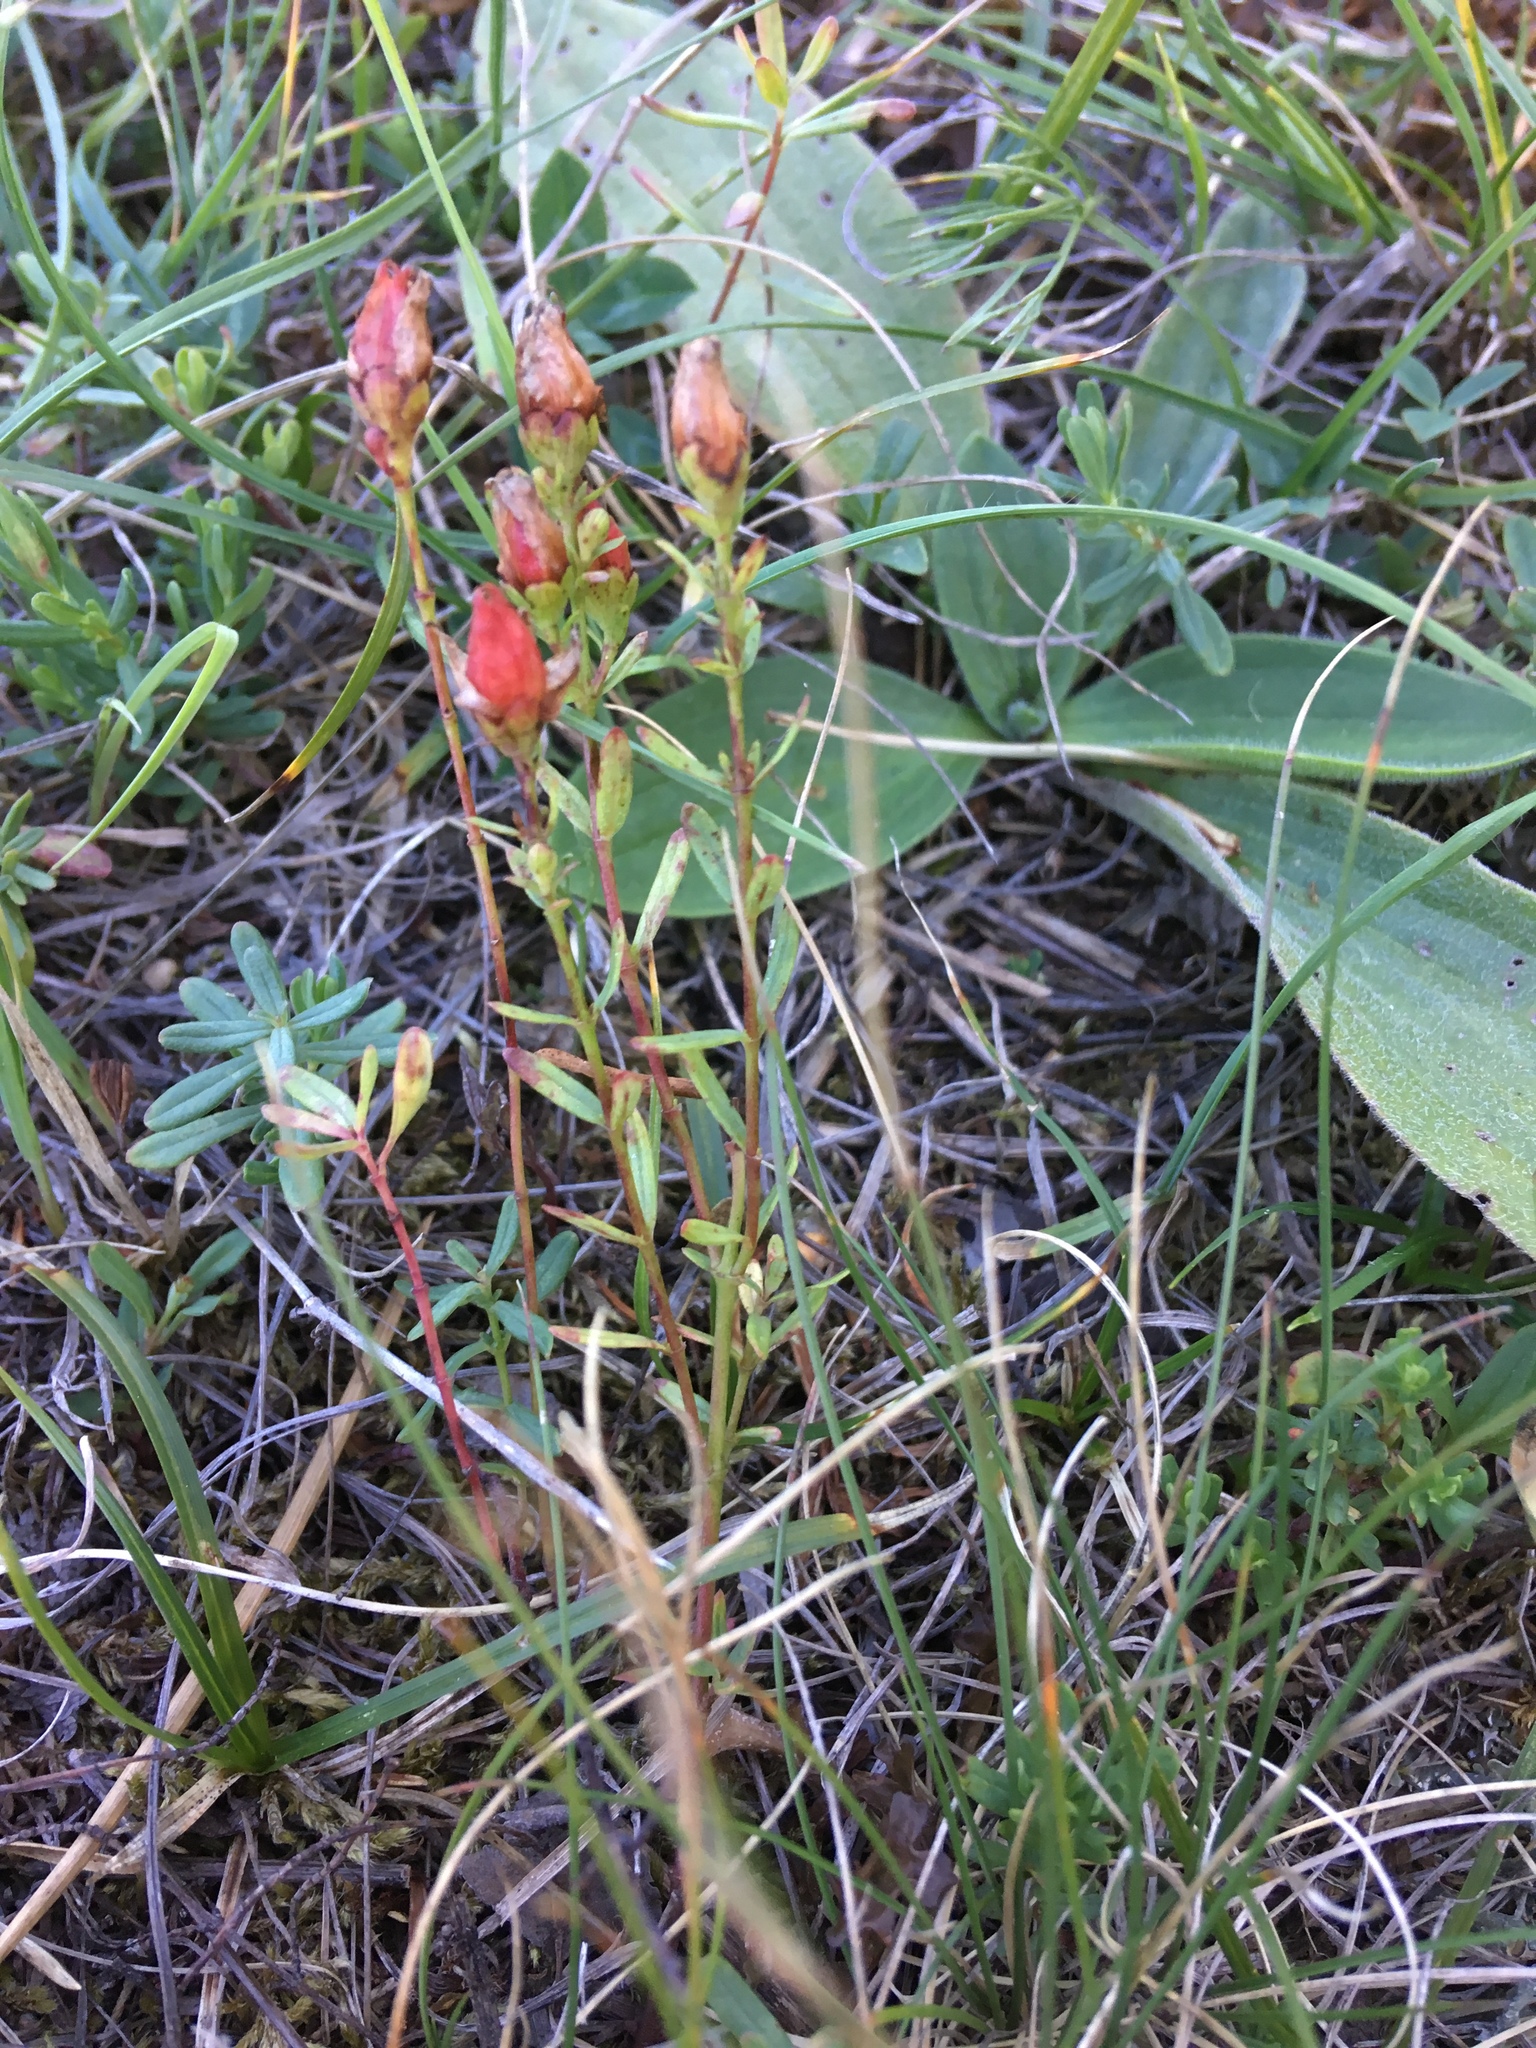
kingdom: Plantae
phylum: Tracheophyta
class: Magnoliopsida
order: Malpighiales
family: Hypericaceae
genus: Hypericum
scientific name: Hypericum linarioides
